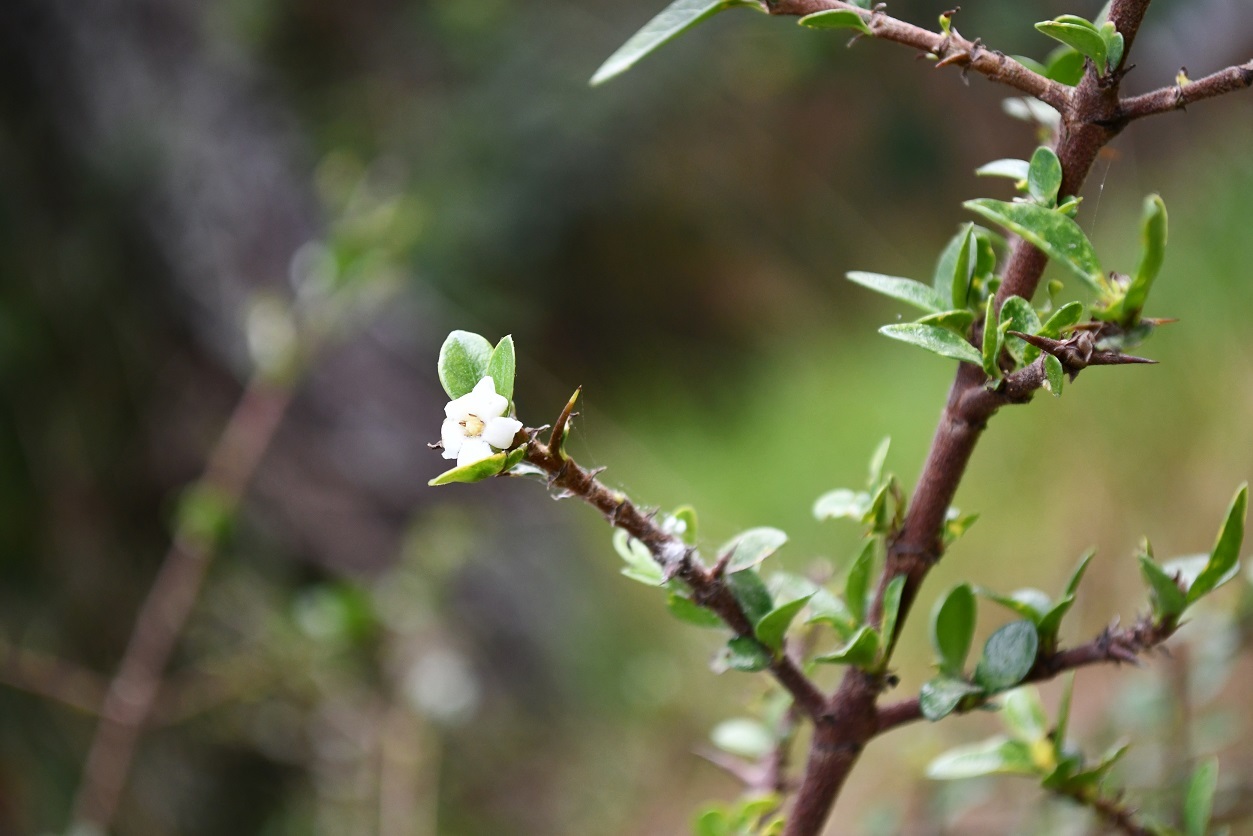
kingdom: Plantae
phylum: Tracheophyta
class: Magnoliopsida
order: Gentianales
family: Rubiaceae
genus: Randia
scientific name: Randia chiapensis
